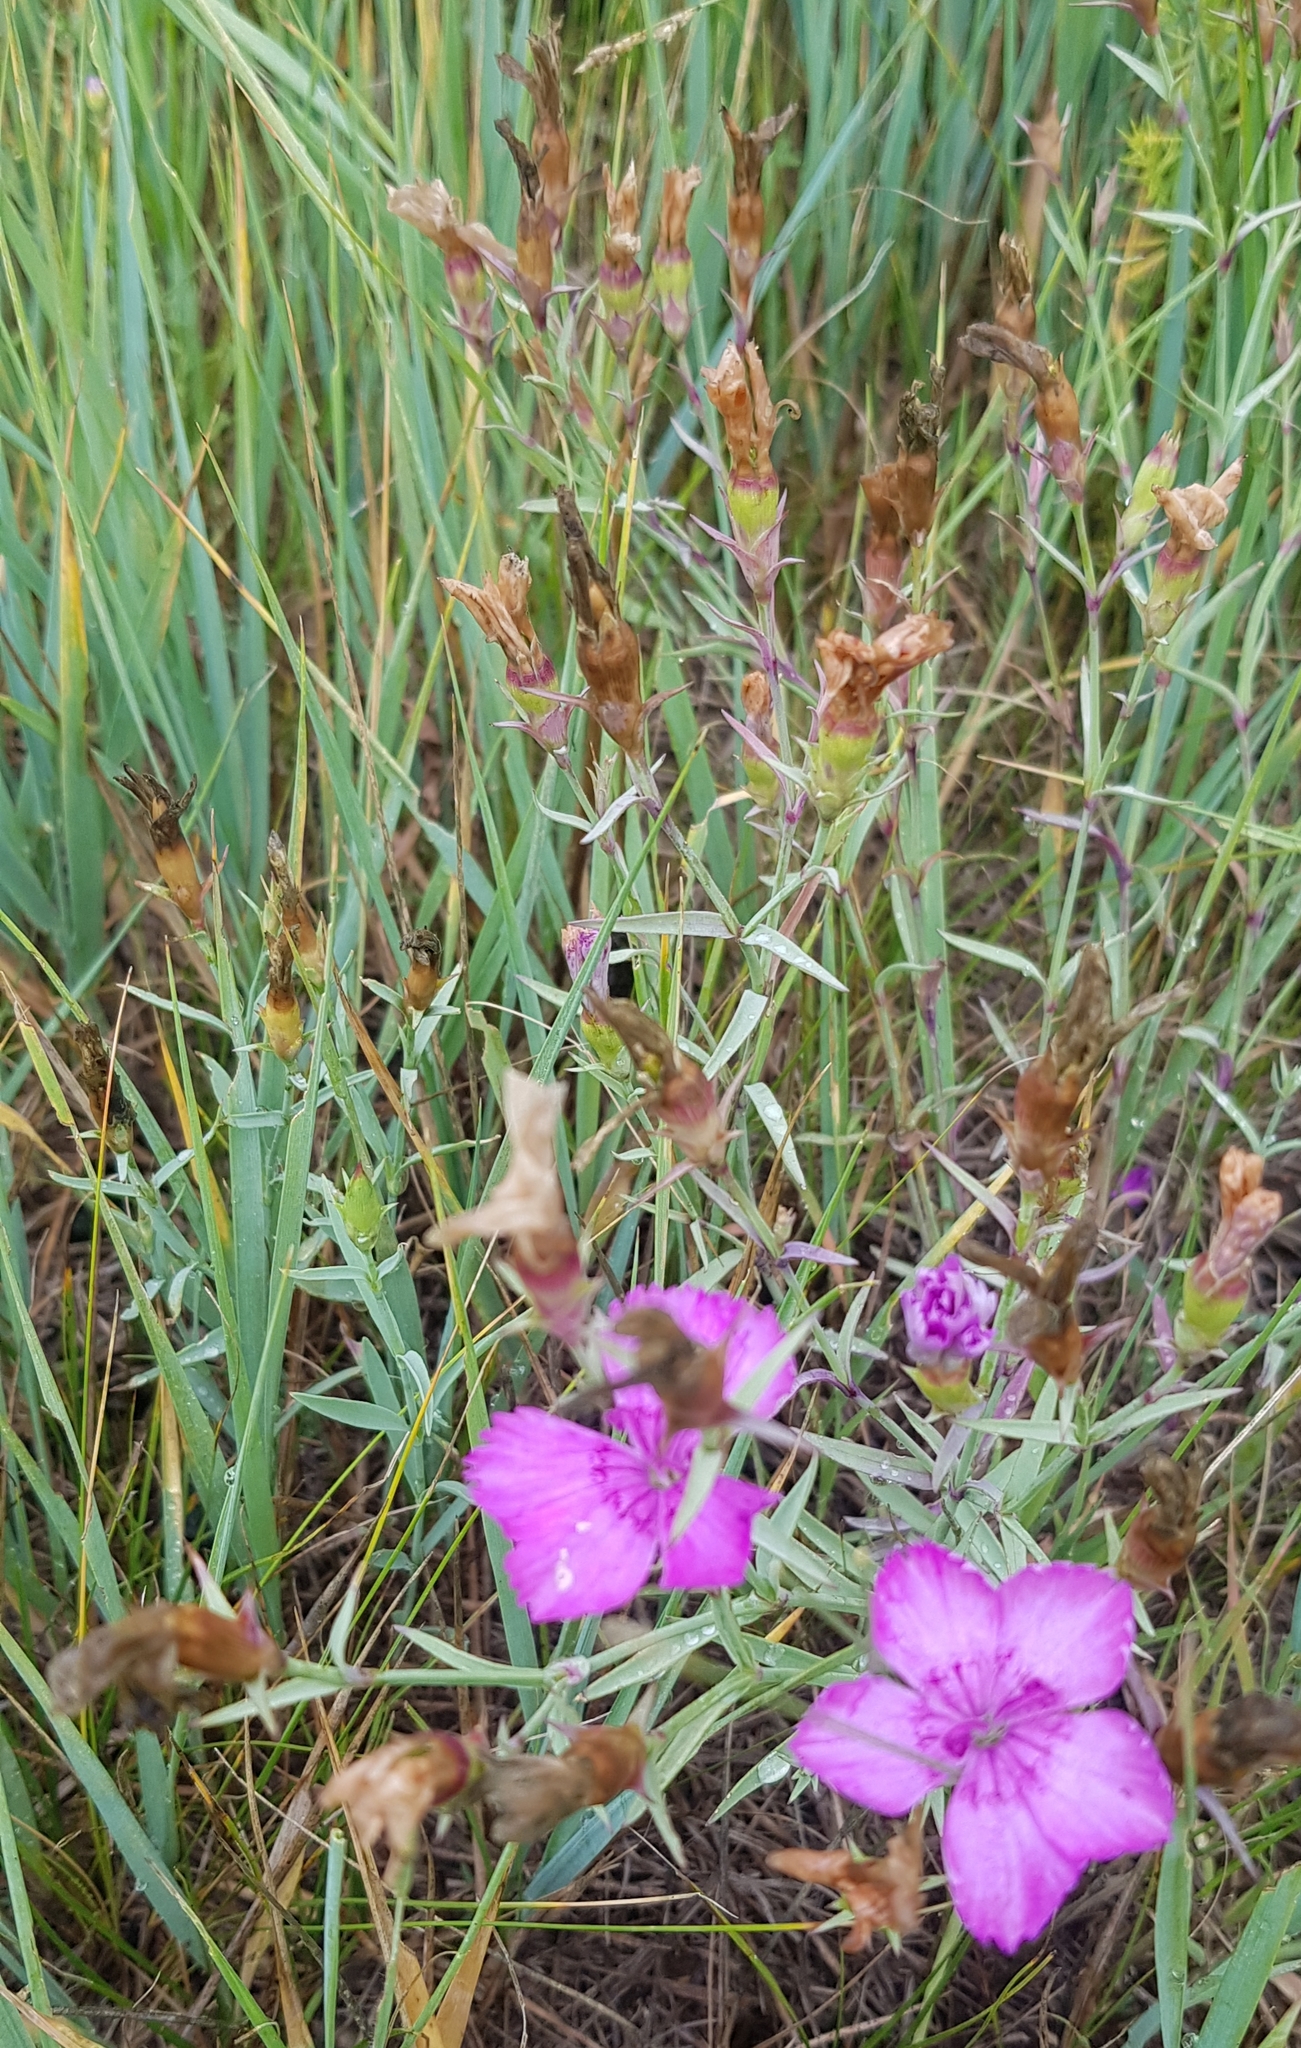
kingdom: Plantae
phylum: Tracheophyta
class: Magnoliopsida
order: Caryophyllales
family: Caryophyllaceae
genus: Dianthus
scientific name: Dianthus chinensis
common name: Rainbow pink
